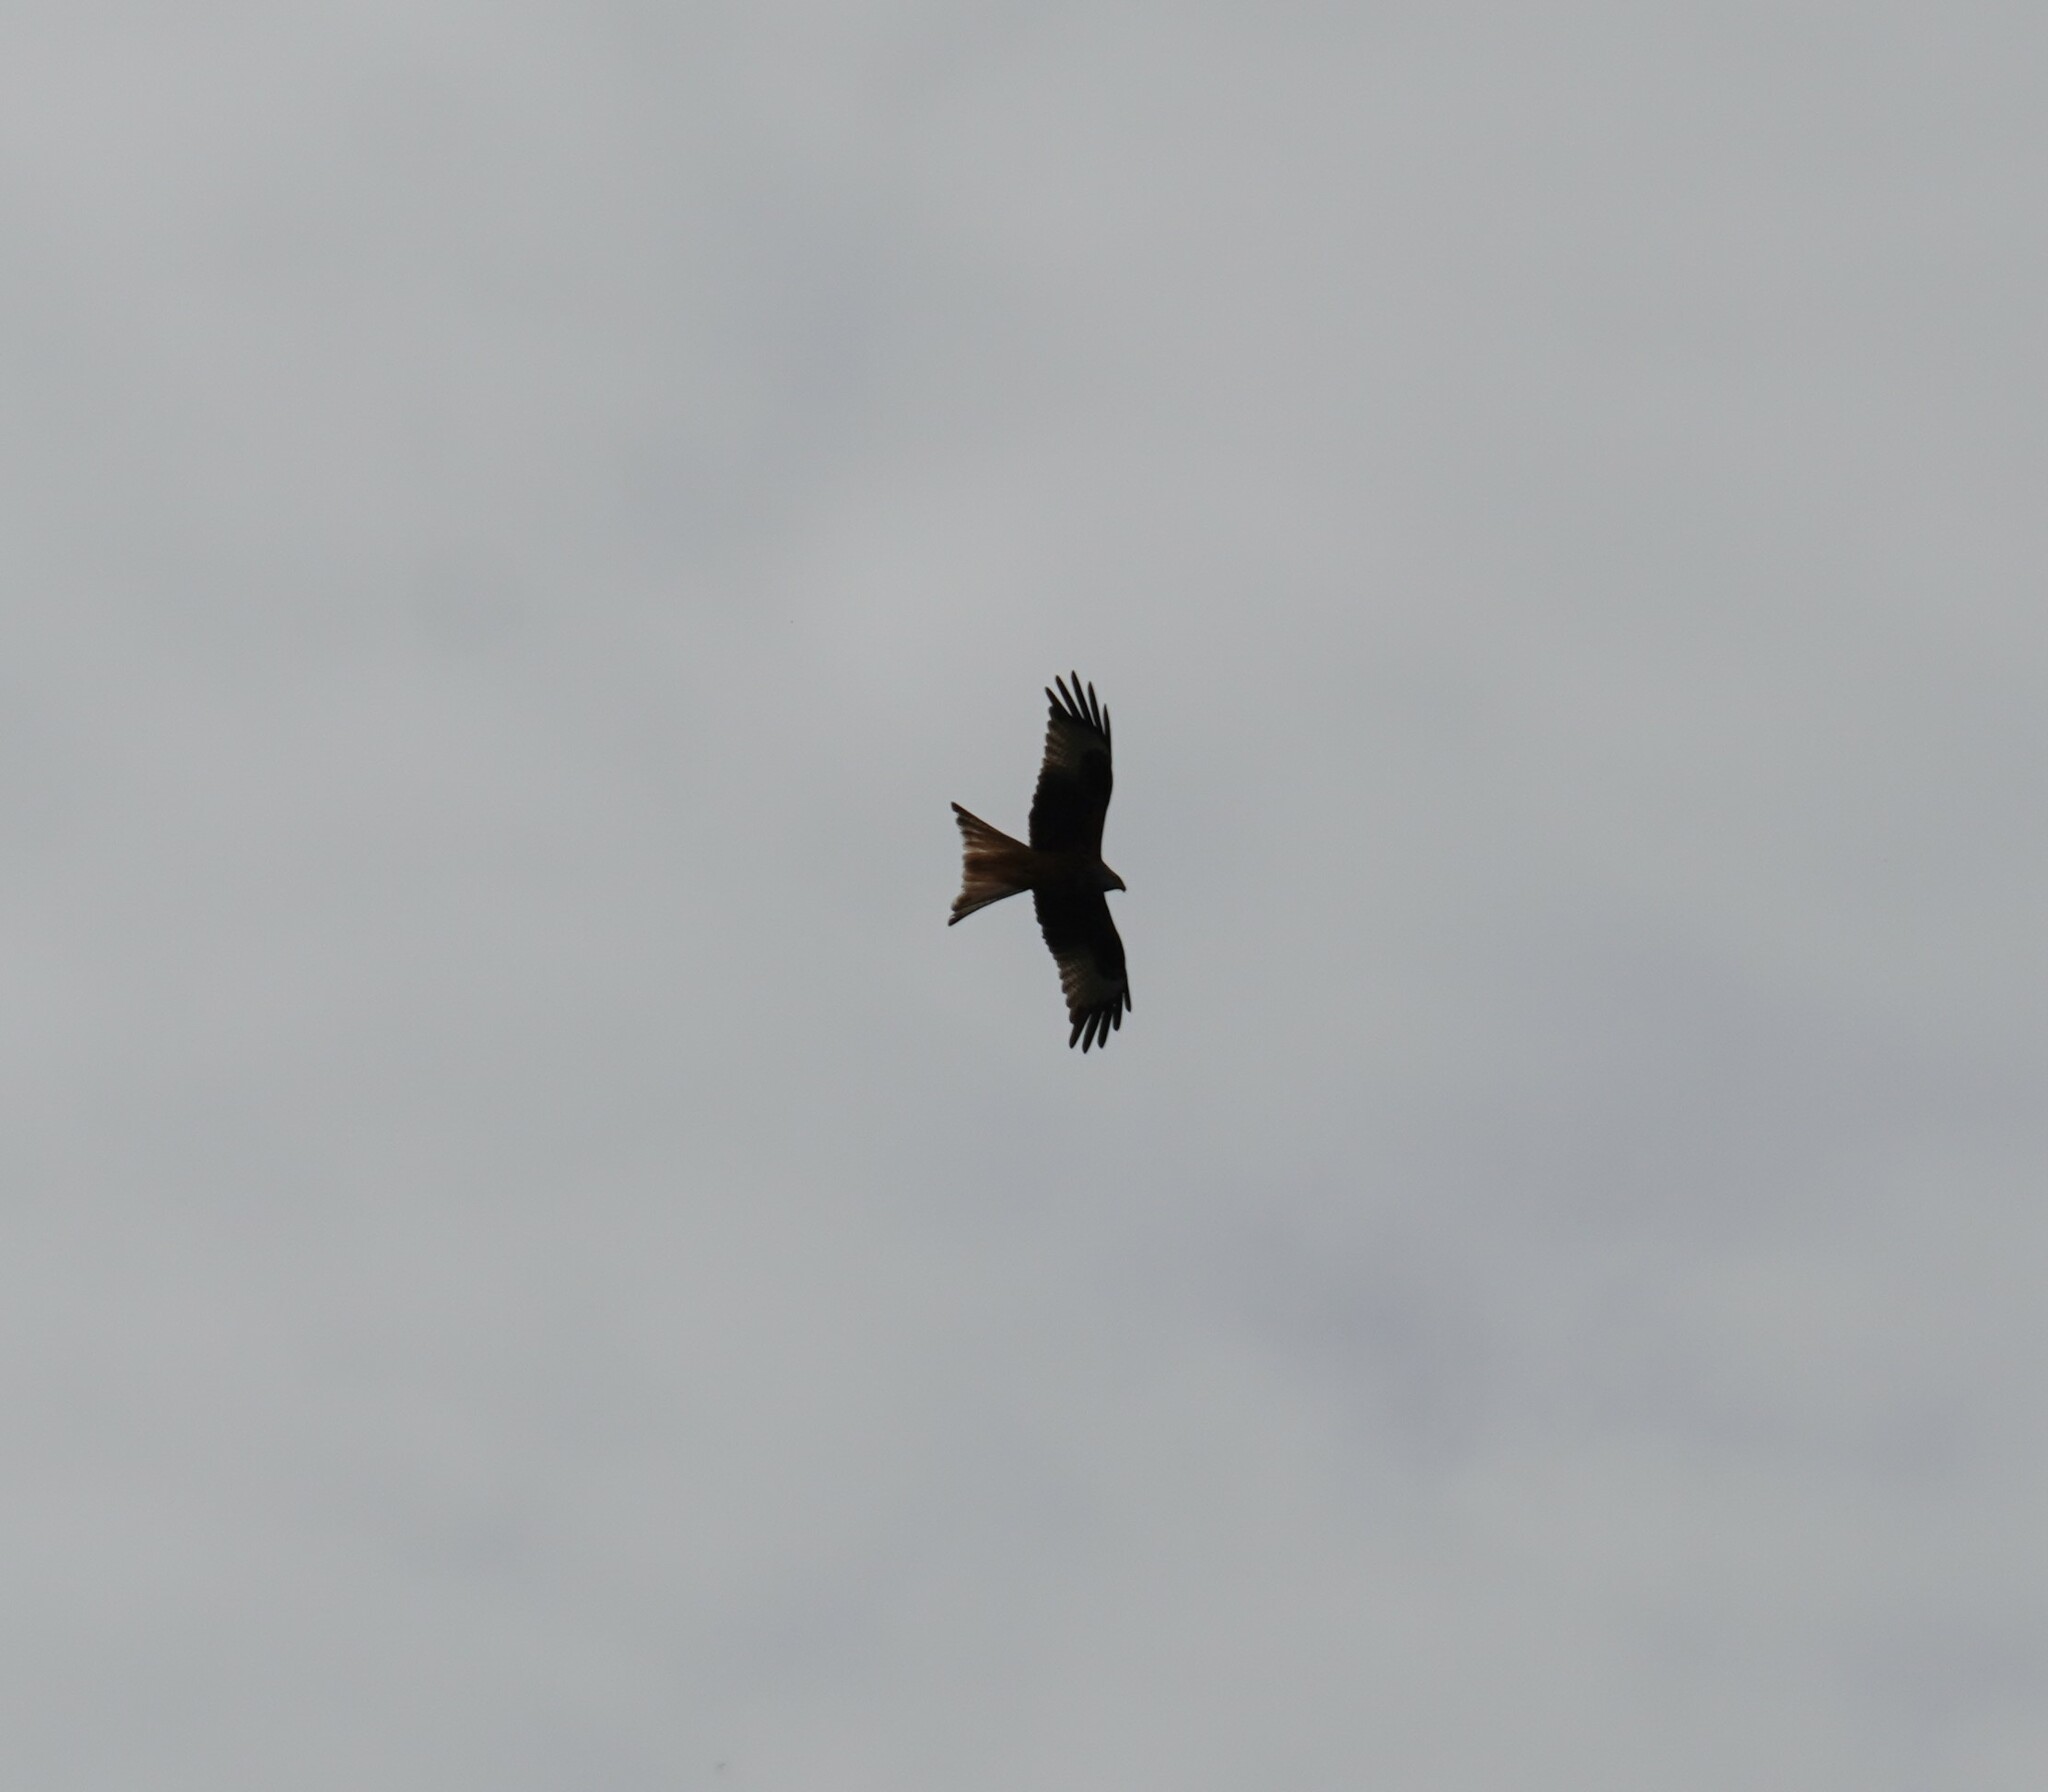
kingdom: Animalia
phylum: Chordata
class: Aves
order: Accipitriformes
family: Accipitridae
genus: Milvus
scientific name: Milvus milvus
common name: Red kite
